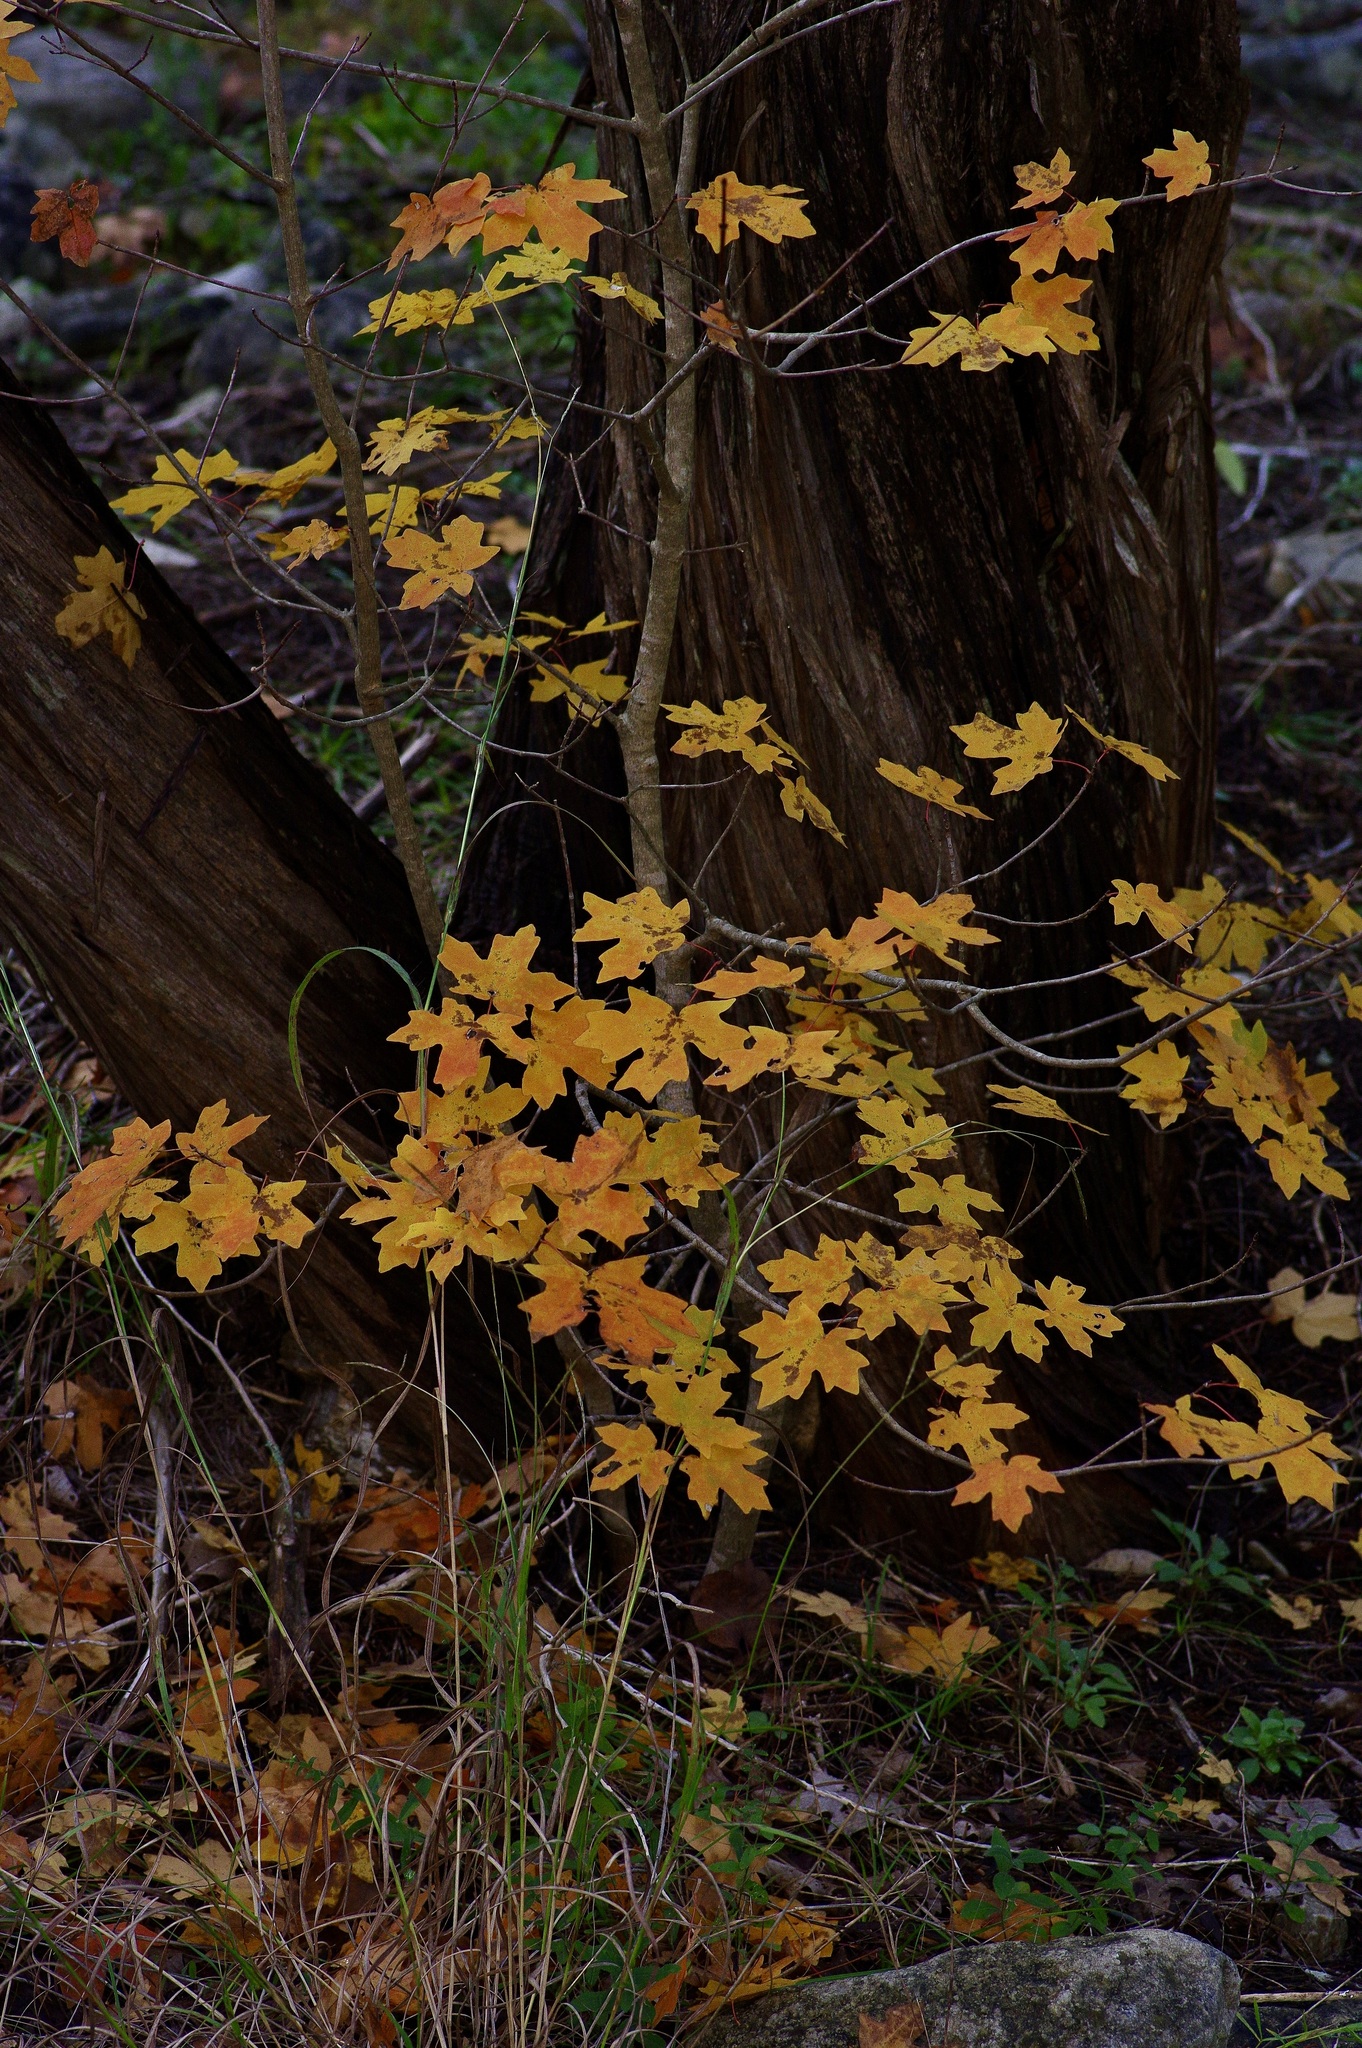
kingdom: Plantae
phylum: Tracheophyta
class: Magnoliopsida
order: Sapindales
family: Sapindaceae
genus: Acer
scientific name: Acer grandidentatum
